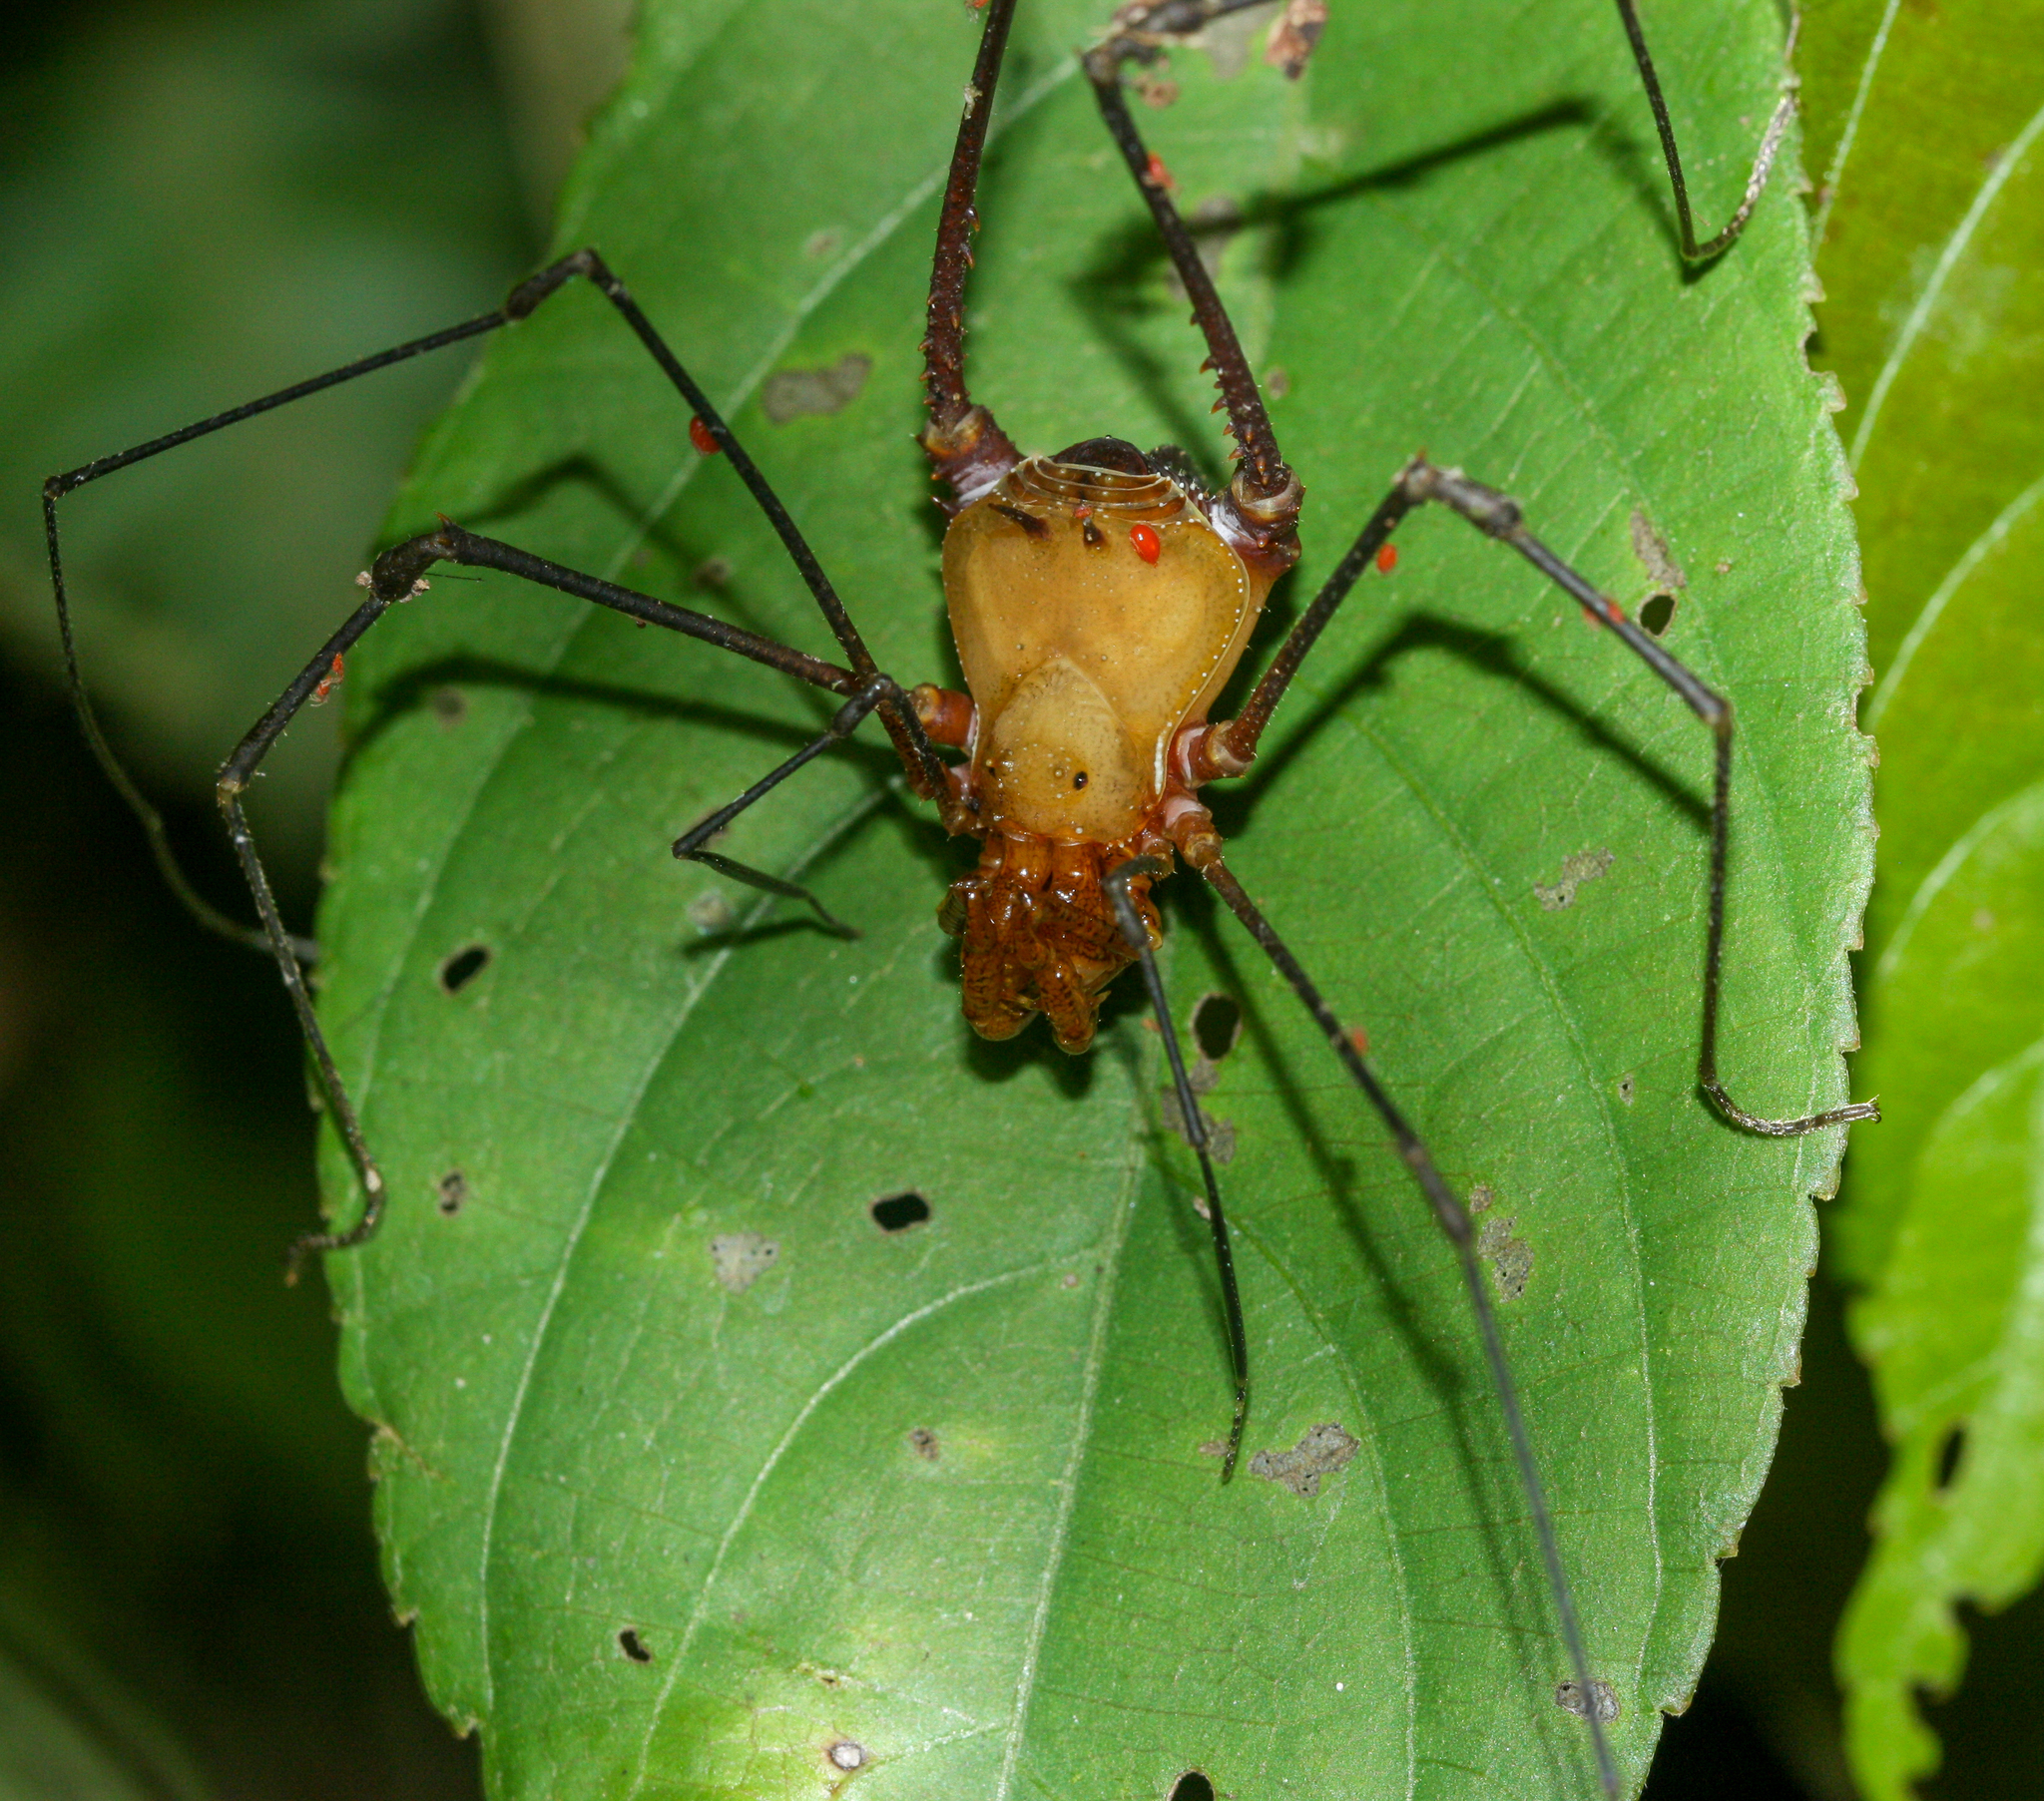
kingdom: Animalia
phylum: Arthropoda
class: Arachnida
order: Opiliones
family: Cranaidae
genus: Ventrivomer
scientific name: Ventrivomer ancyrophorus
